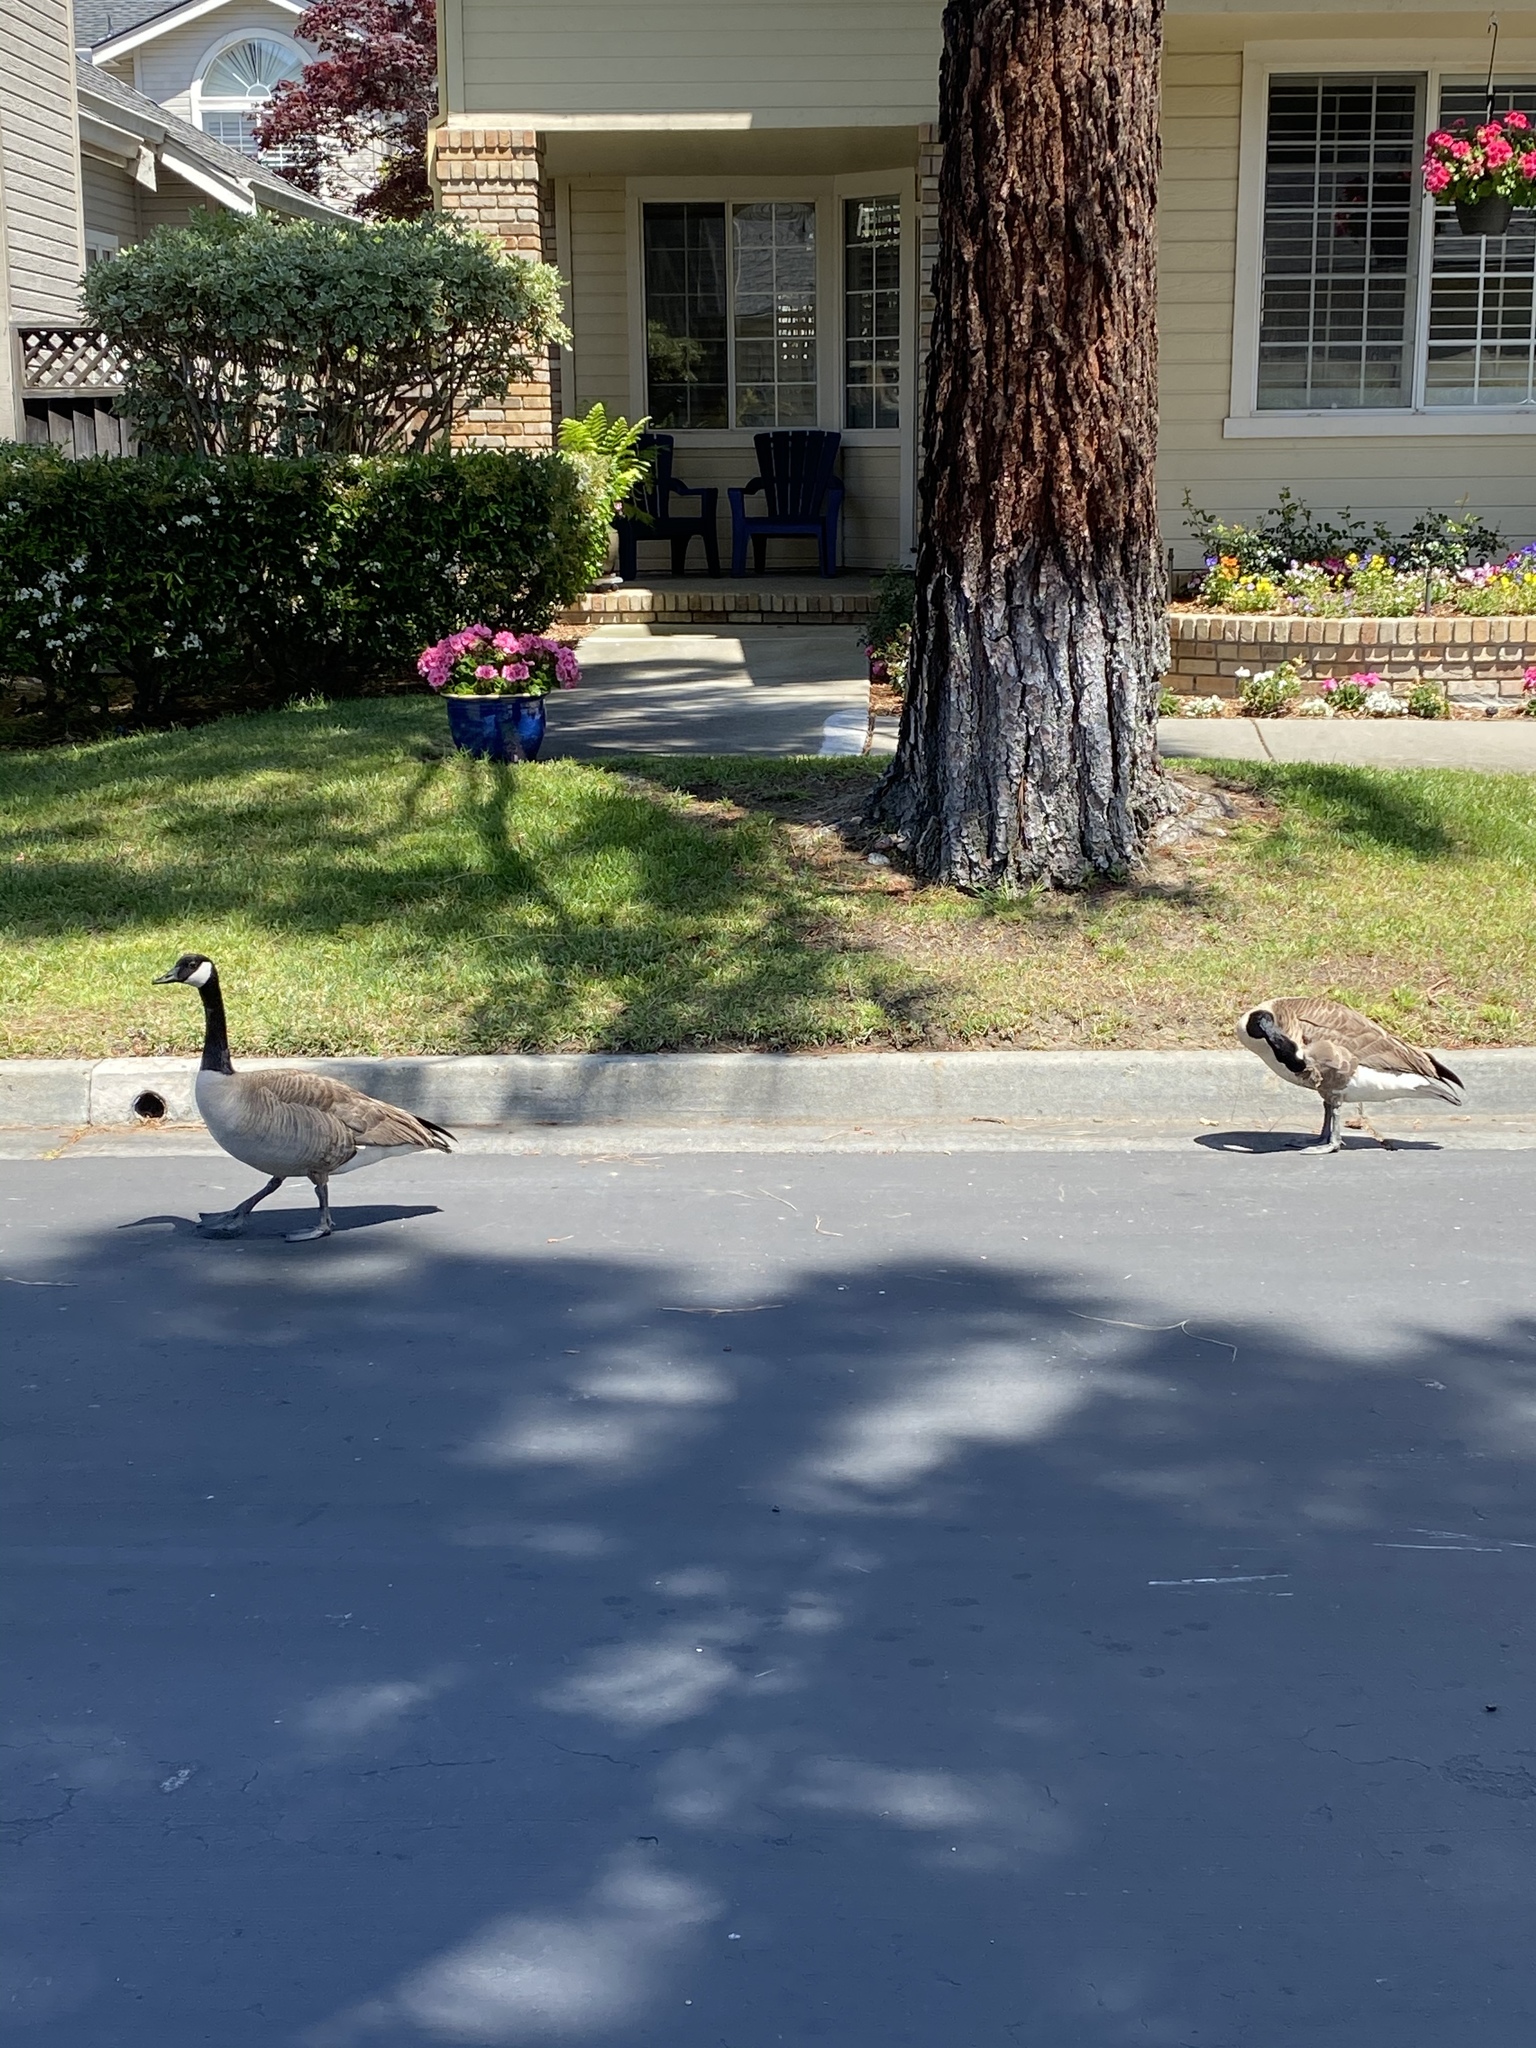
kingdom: Animalia
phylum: Chordata
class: Aves
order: Anseriformes
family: Anatidae
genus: Branta
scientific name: Branta canadensis
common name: Canada goose
